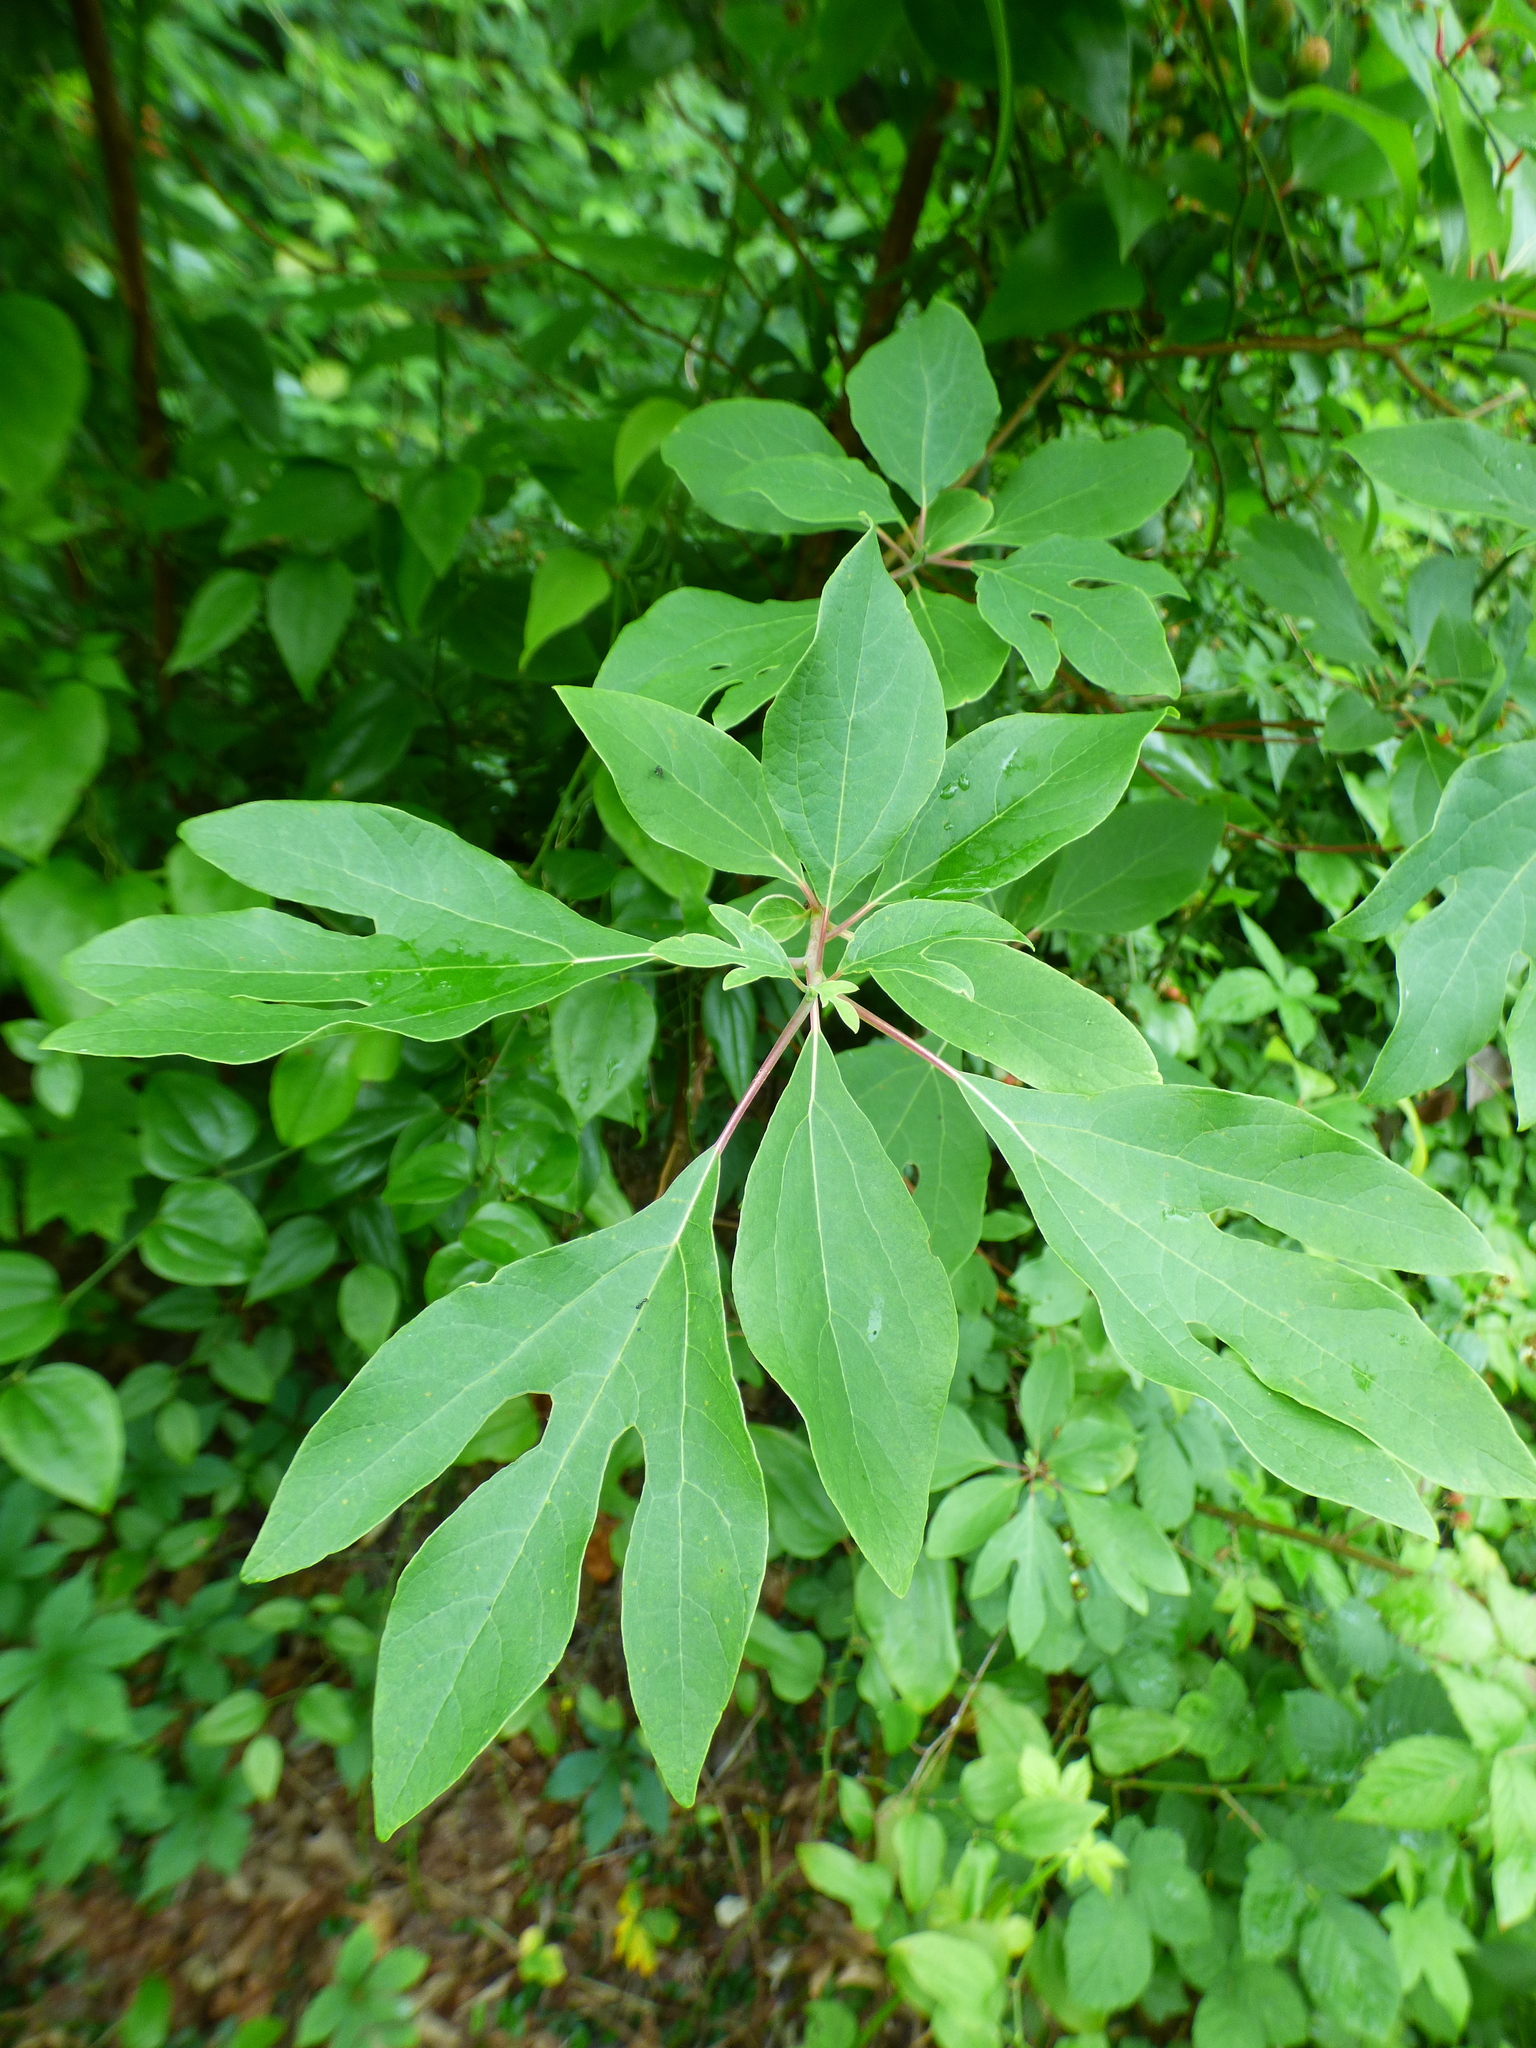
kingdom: Plantae
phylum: Tracheophyta
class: Magnoliopsida
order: Laurales
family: Lauraceae
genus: Sassafras
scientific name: Sassafras albidum
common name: Sassafras
